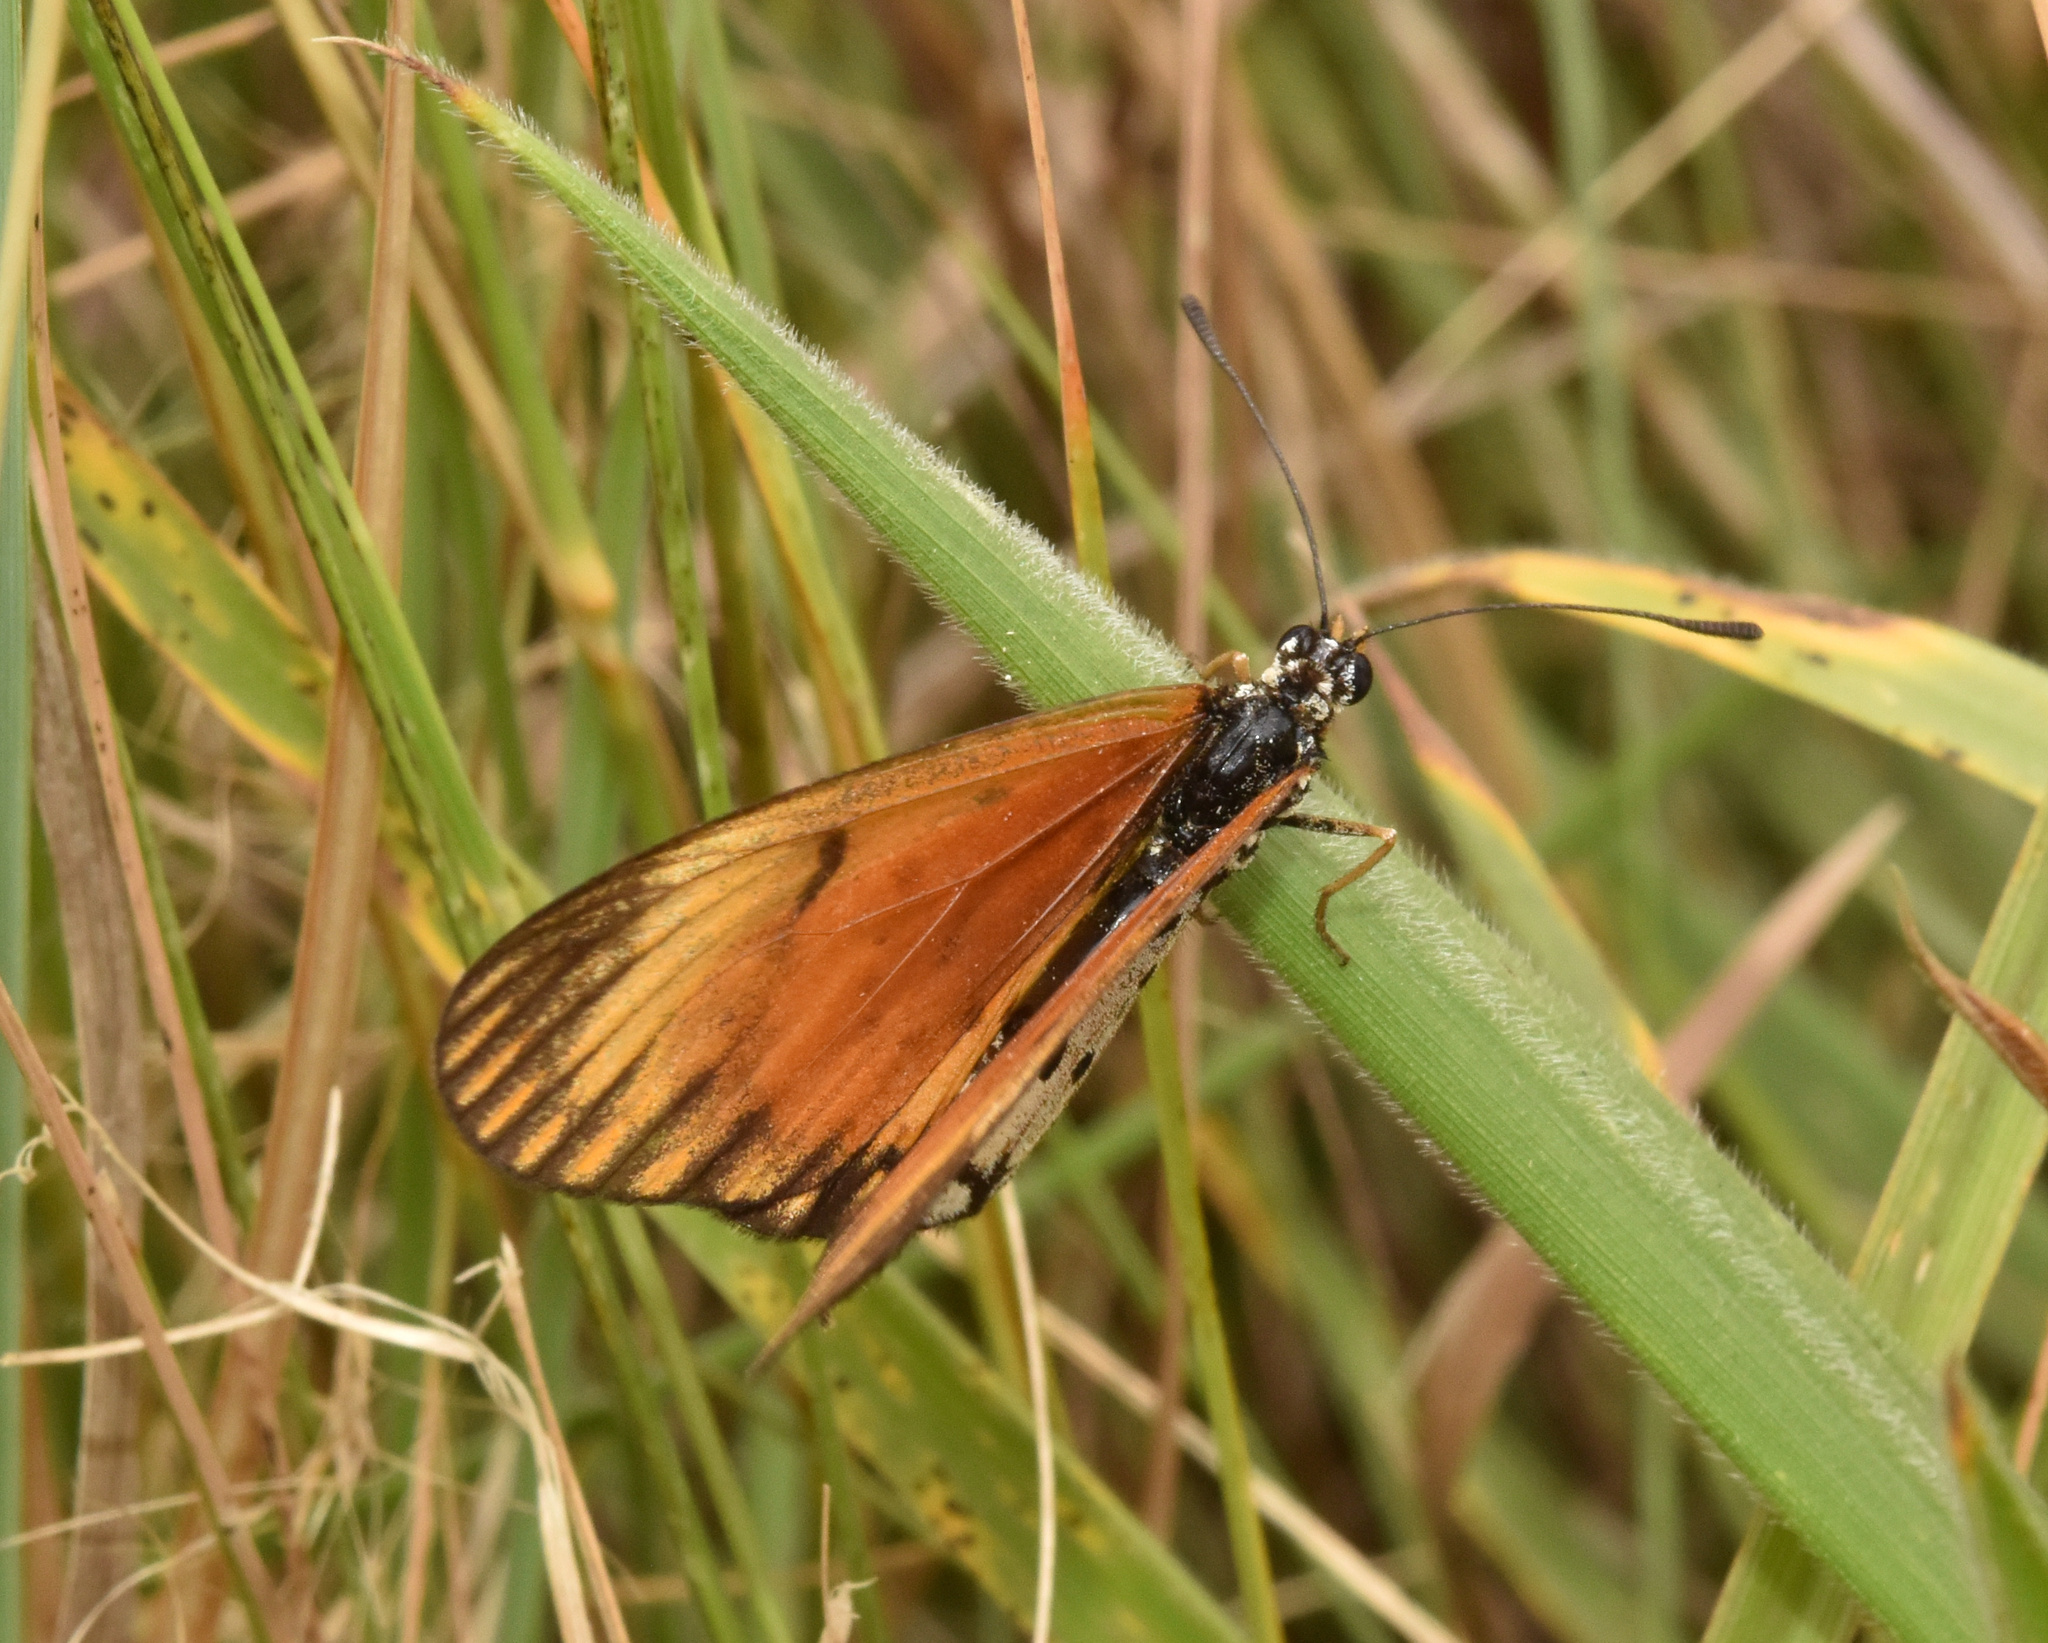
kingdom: Animalia
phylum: Arthropoda
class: Insecta
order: Lepidoptera
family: Nymphalidae
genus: Acraea
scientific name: Acraea Telchinia serena
